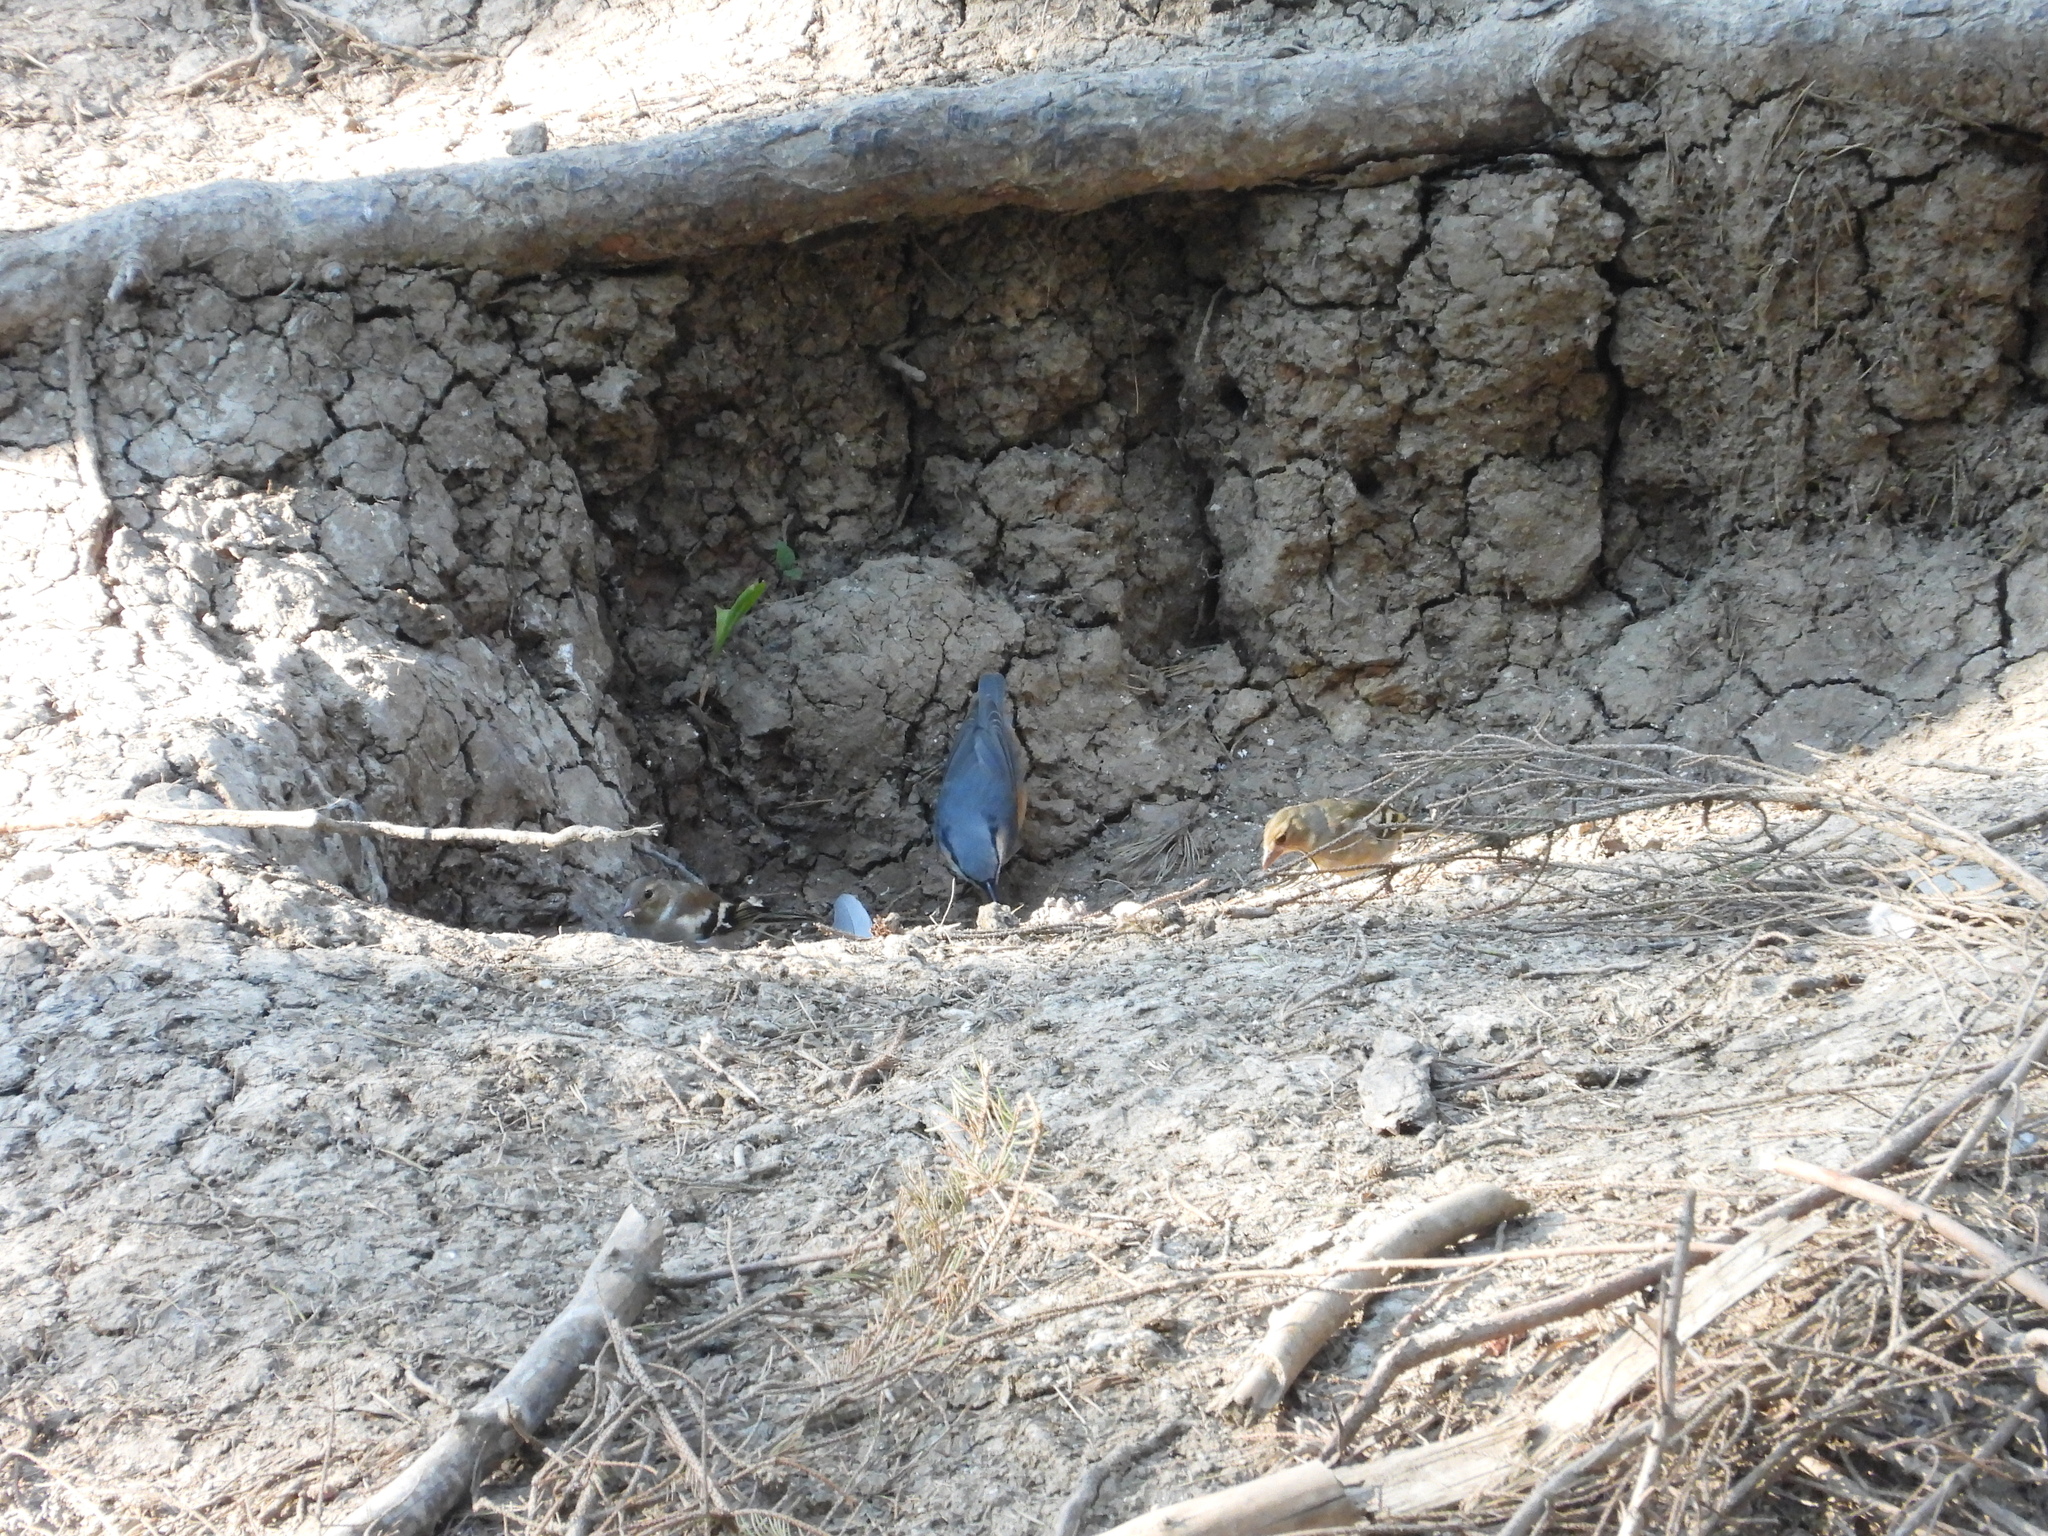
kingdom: Animalia
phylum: Chordata
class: Aves
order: Passeriformes
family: Sittidae
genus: Sitta
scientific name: Sitta europaea
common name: Eurasian nuthatch
